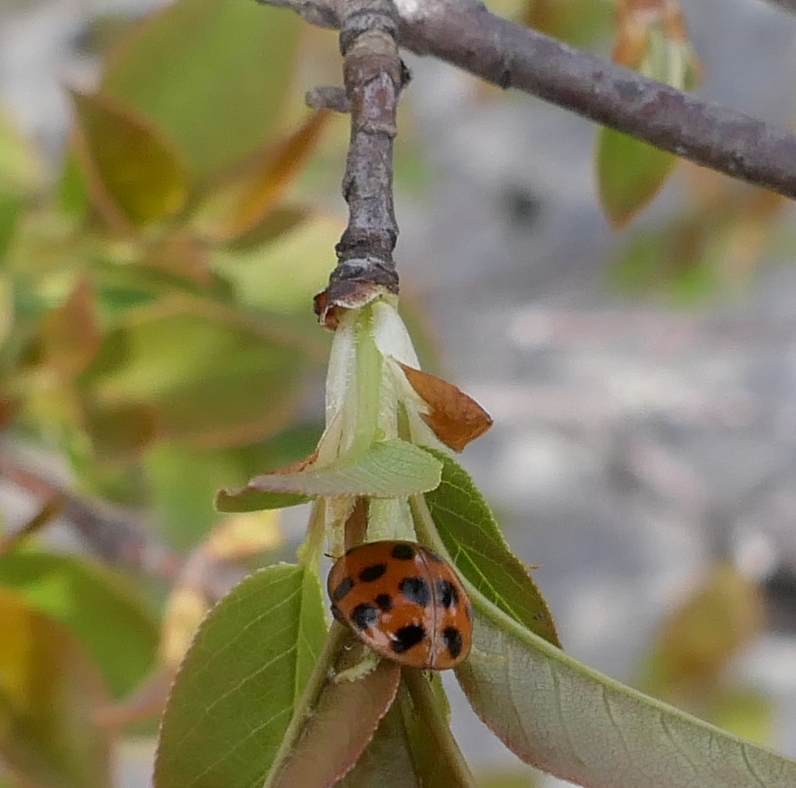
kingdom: Animalia
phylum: Arthropoda
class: Insecta
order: Coleoptera
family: Coccinellidae
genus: Harmonia
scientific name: Harmonia axyridis
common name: Harlequin ladybird
